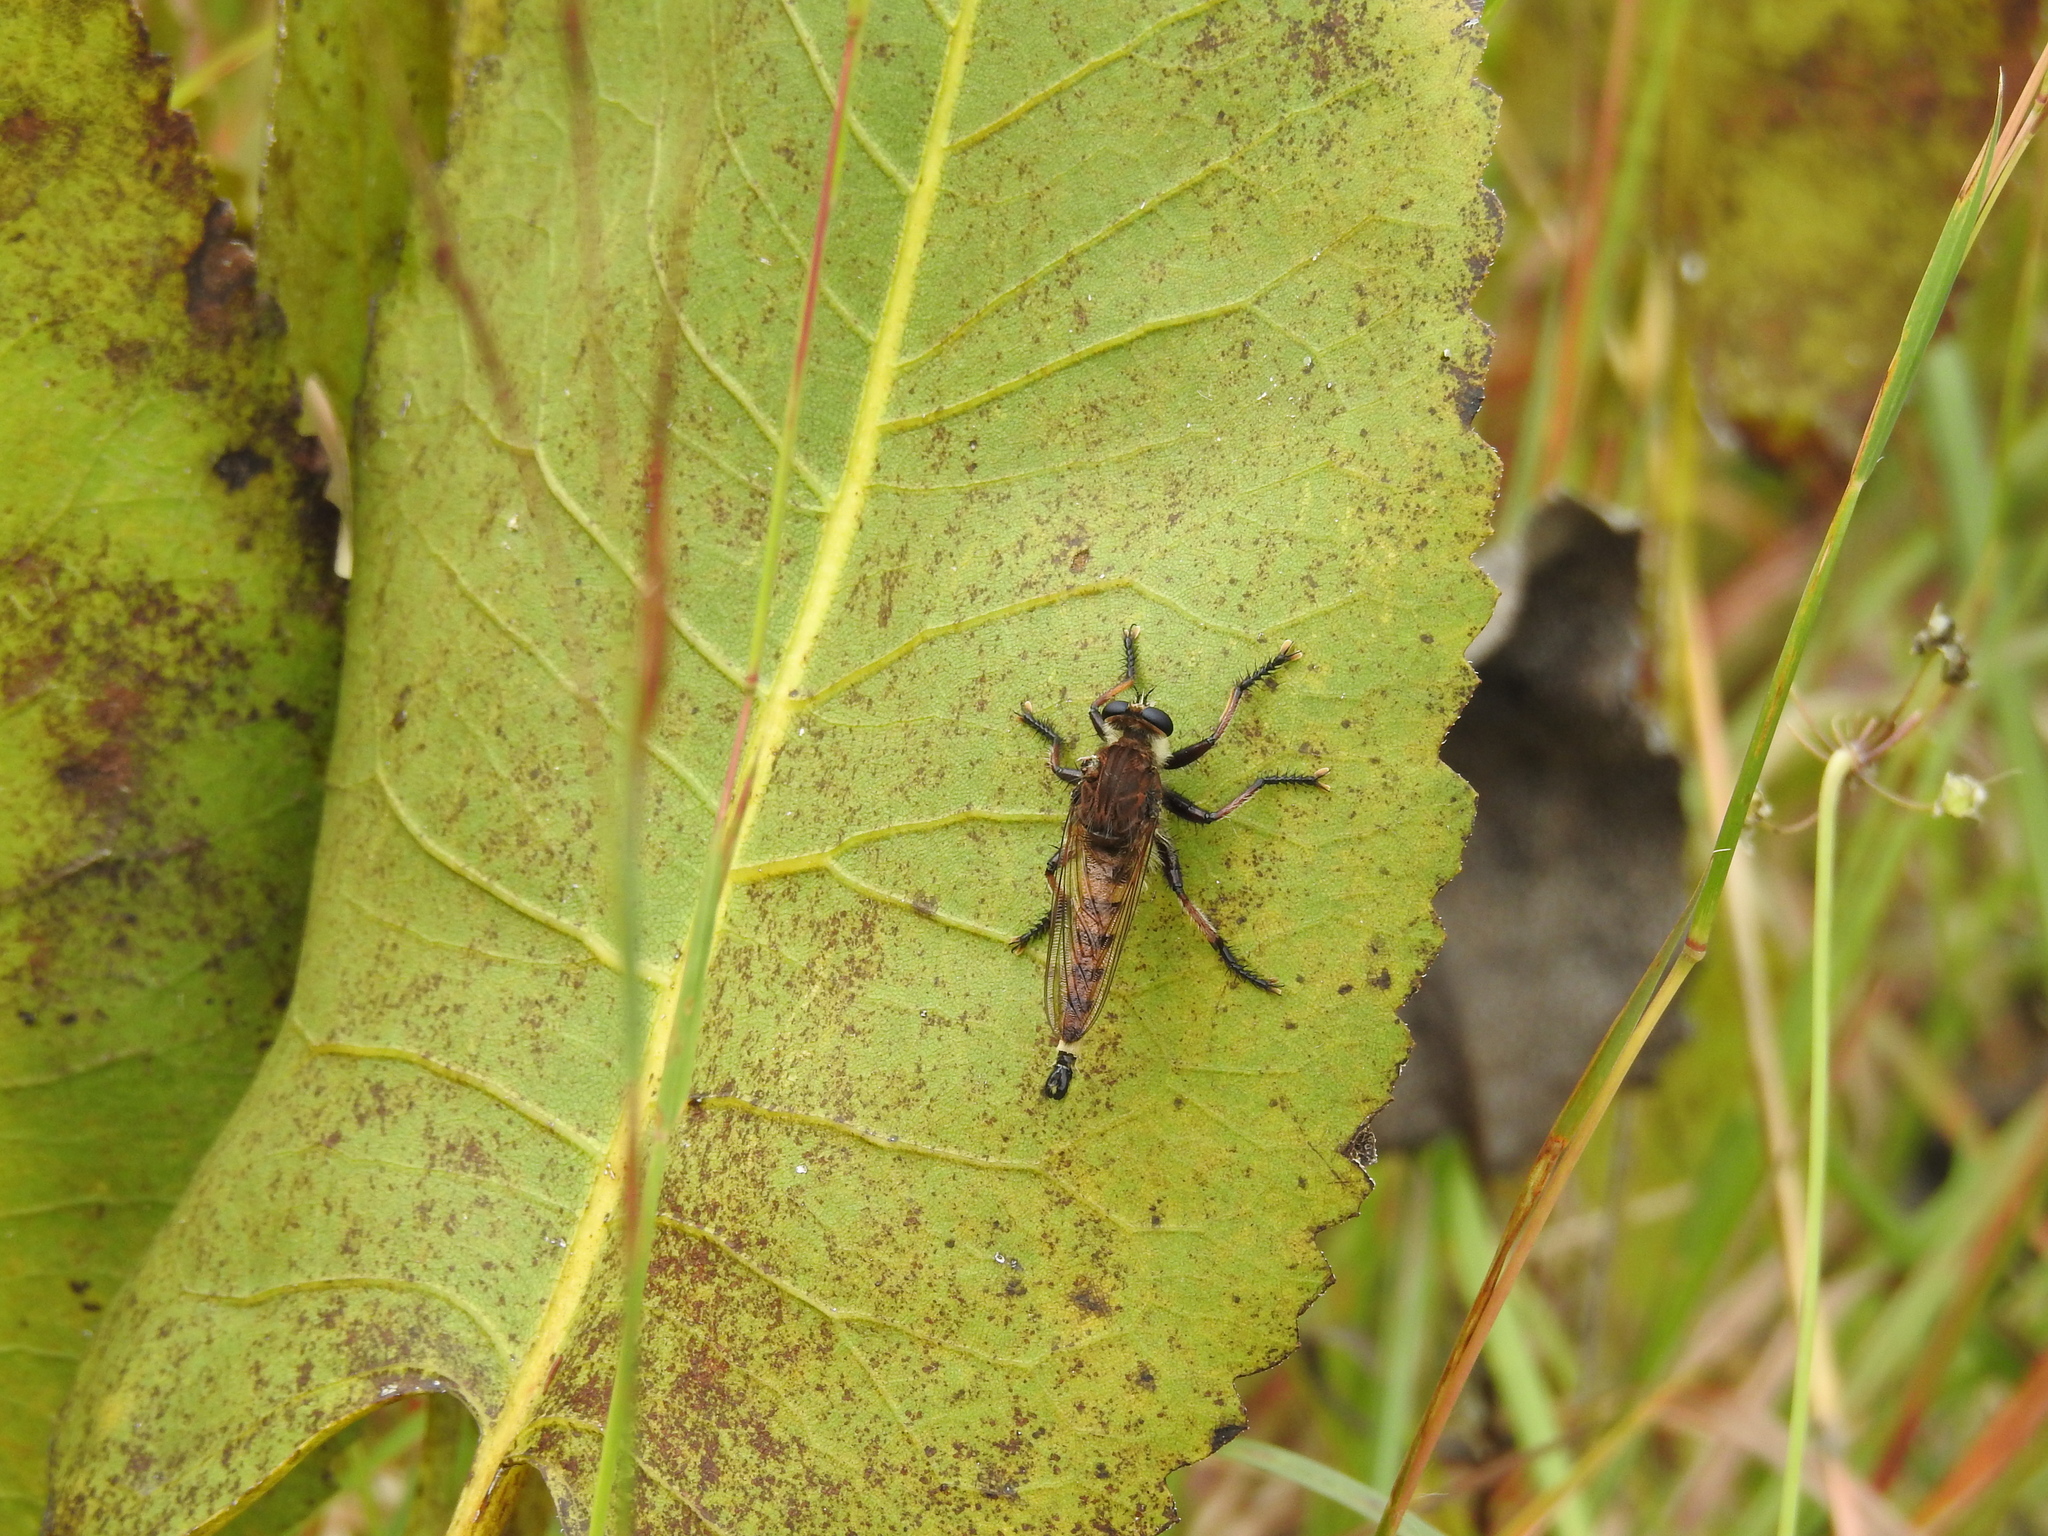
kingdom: Animalia
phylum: Arthropoda
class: Insecta
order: Diptera
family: Asilidae
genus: Promachus
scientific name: Promachus hinei
